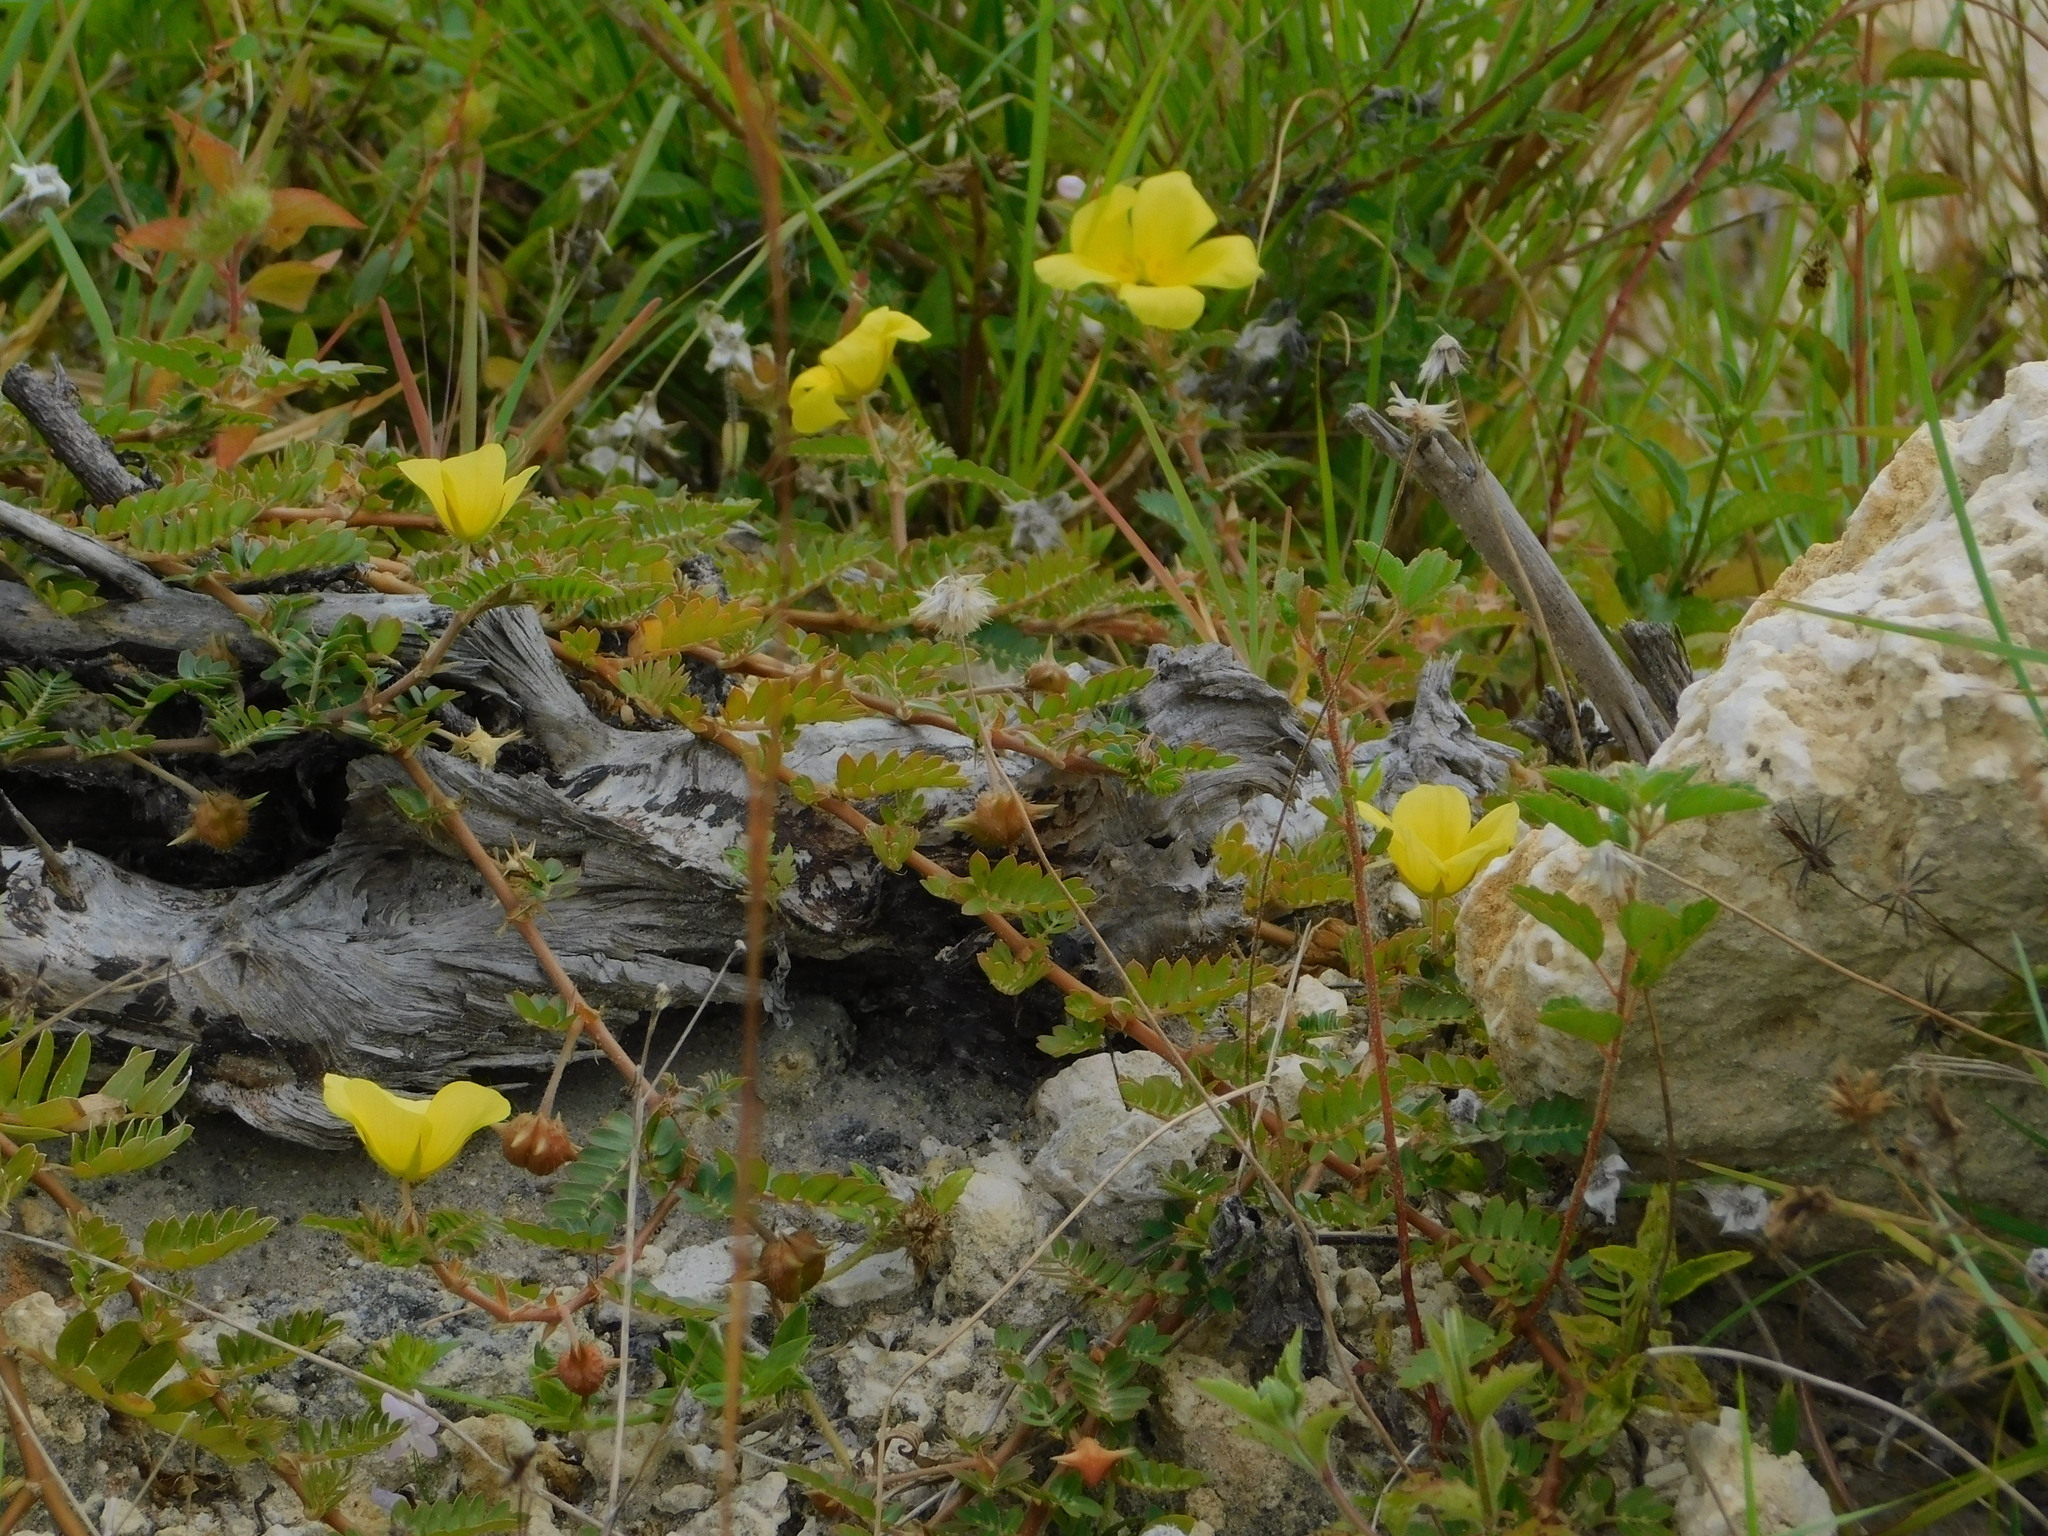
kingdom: Plantae
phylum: Tracheophyta
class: Magnoliopsida
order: Zygophyllales
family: Zygophyllaceae
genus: Tribulus
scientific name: Tribulus cistoides
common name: Jamaican feverplant
